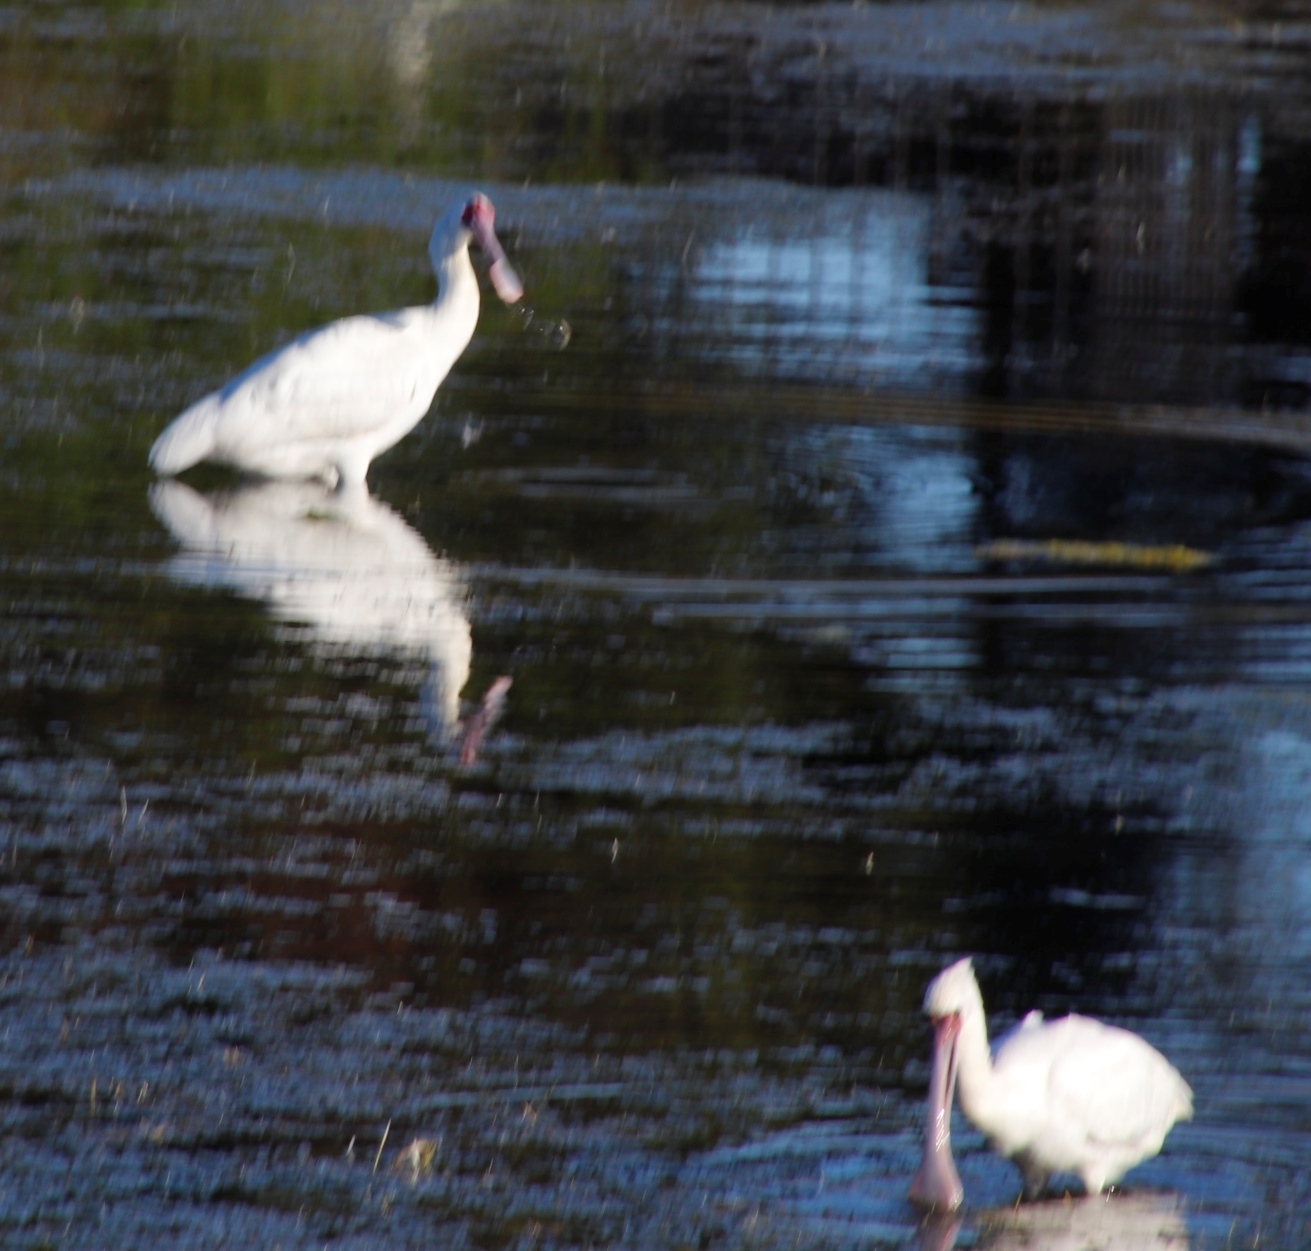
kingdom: Animalia
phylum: Chordata
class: Aves
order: Pelecaniformes
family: Threskiornithidae
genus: Platalea
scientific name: Platalea alba
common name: African spoonbill
